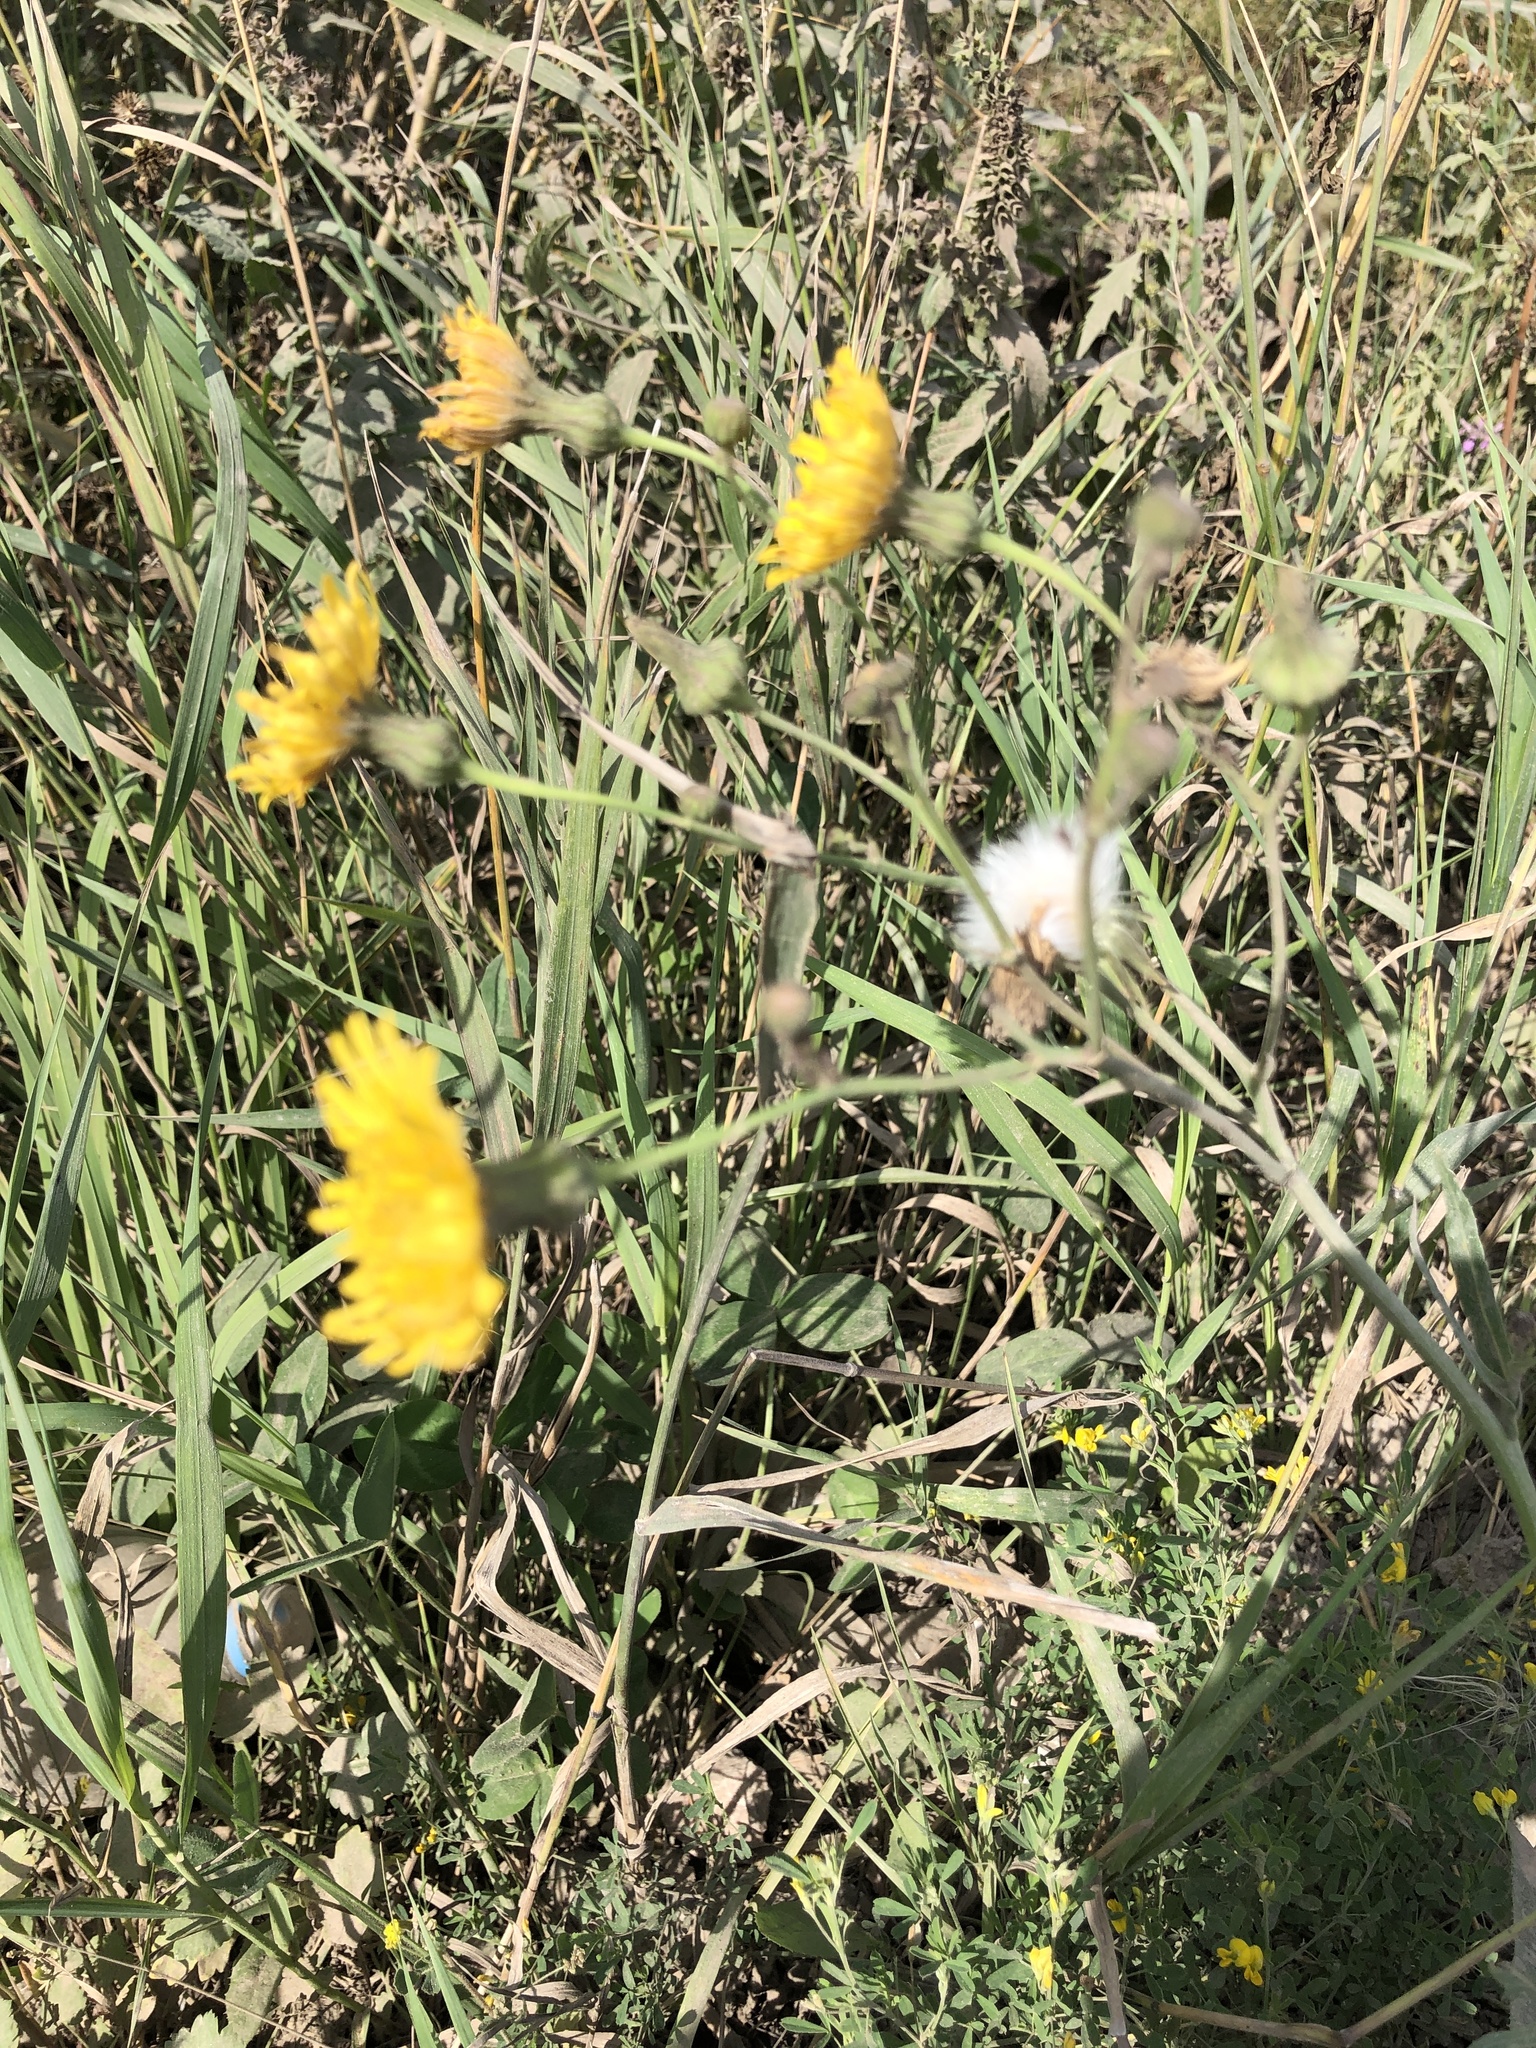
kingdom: Plantae
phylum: Tracheophyta
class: Magnoliopsida
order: Asterales
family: Asteraceae
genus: Sonchus
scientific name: Sonchus arvensis
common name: Perennial sow-thistle
